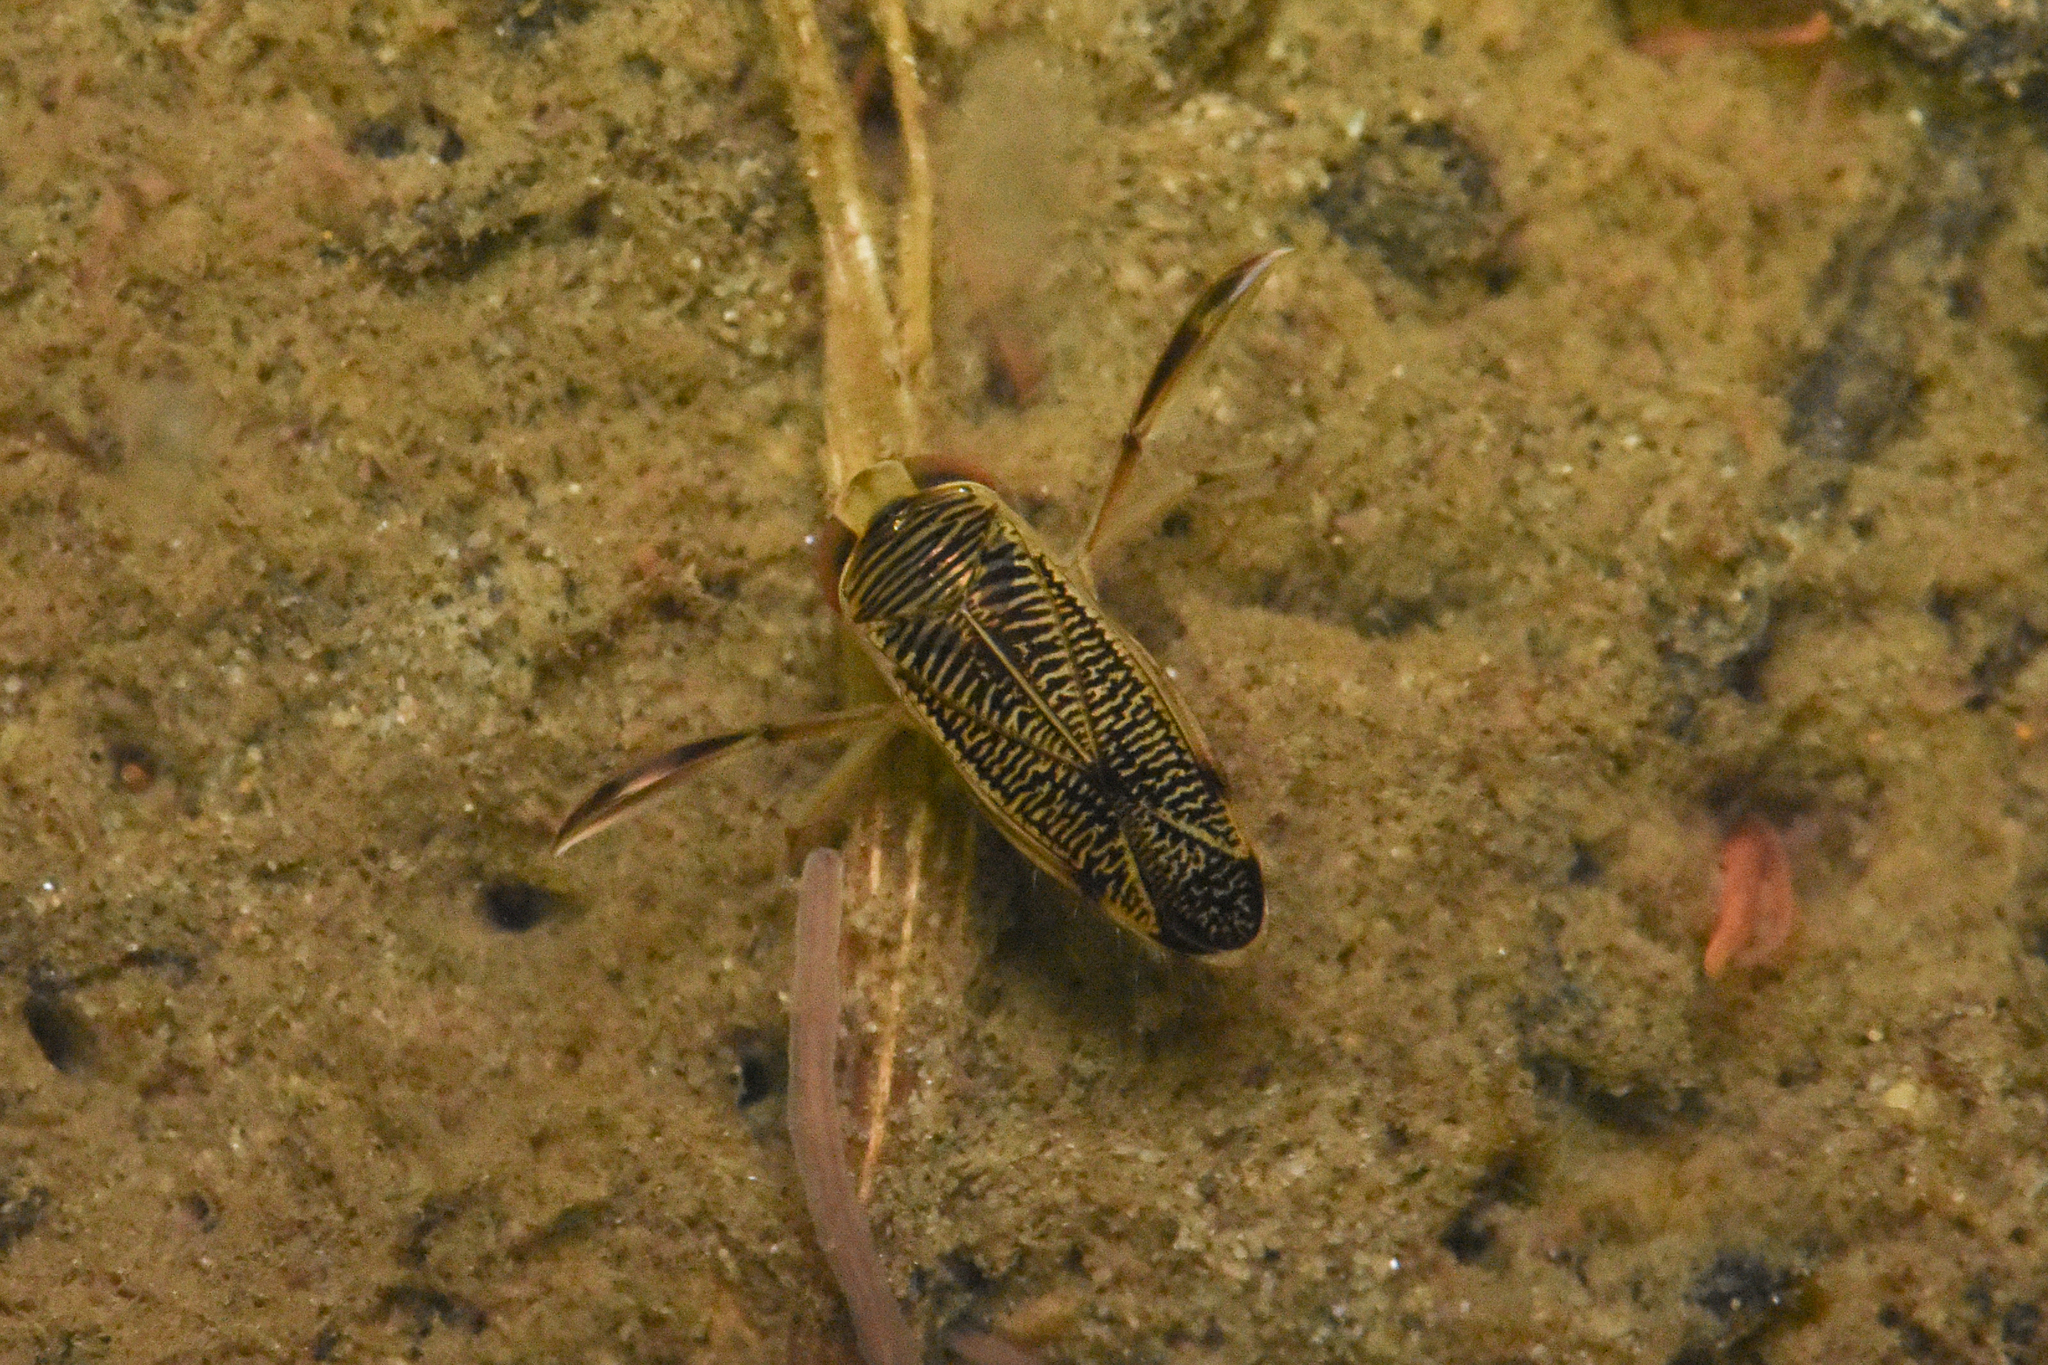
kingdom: Animalia
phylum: Arthropoda
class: Insecta
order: Hemiptera
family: Corixidae
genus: Sigara
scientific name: Sigara
